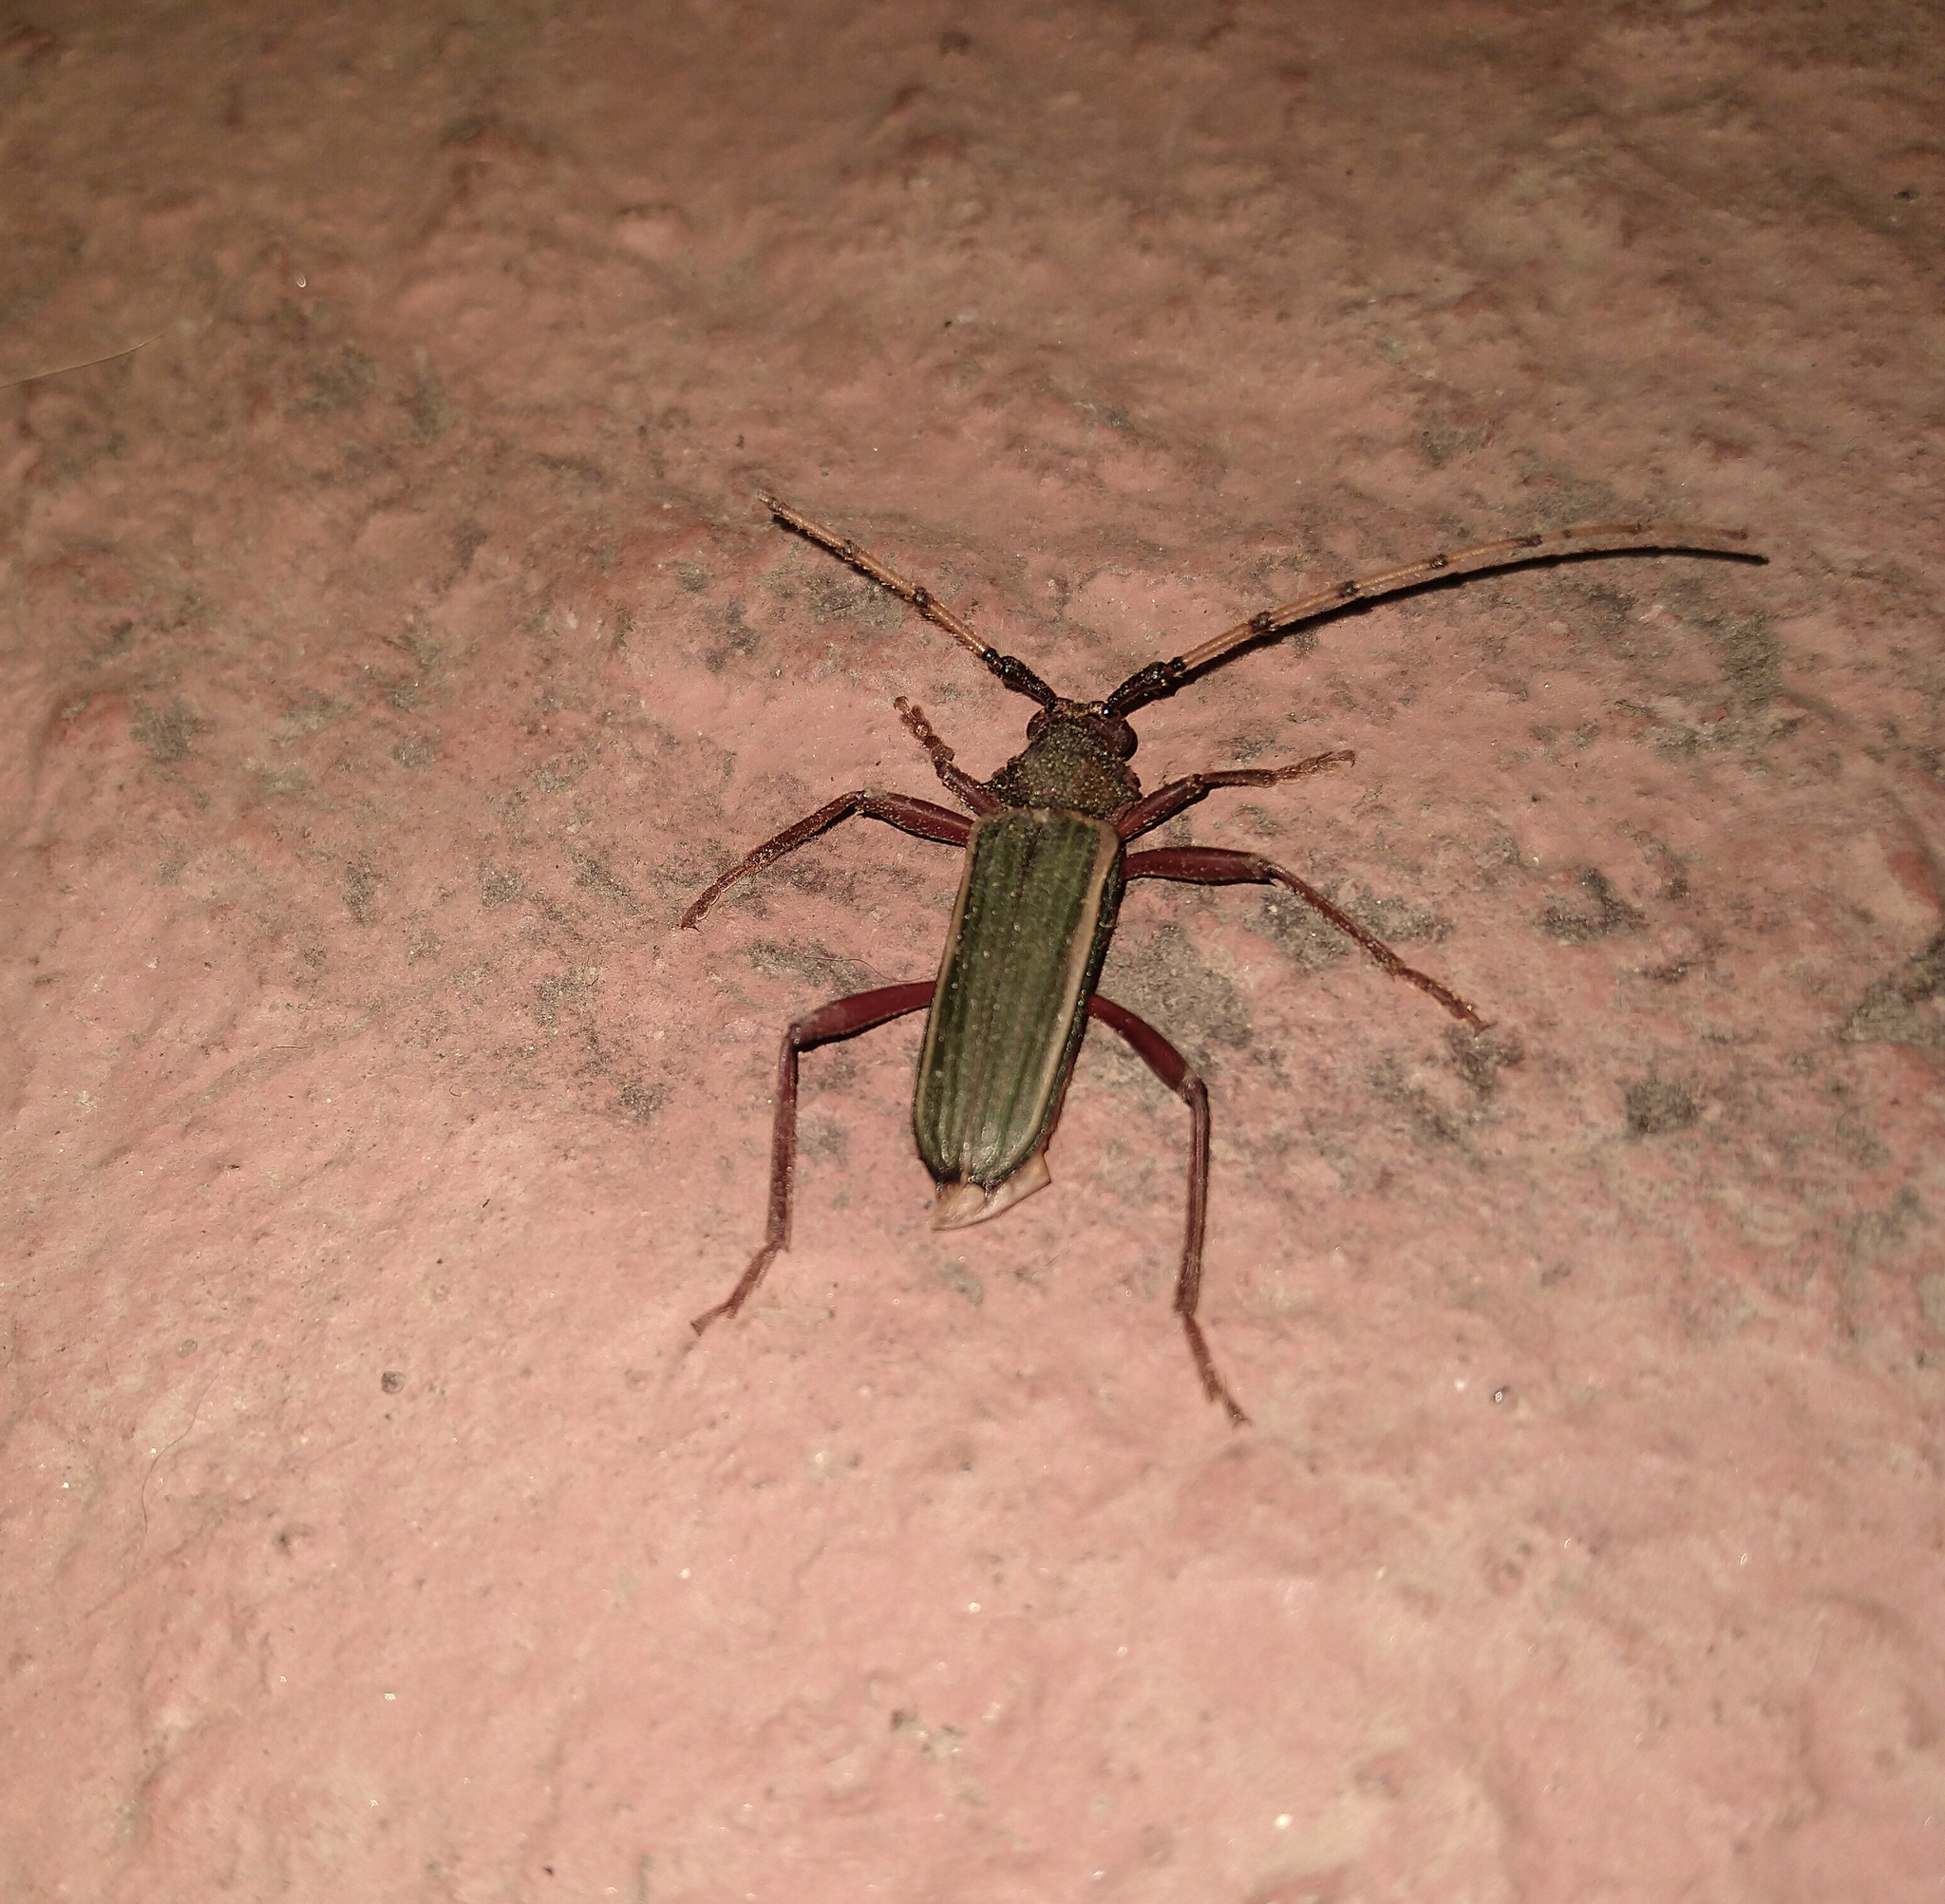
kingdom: Animalia
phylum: Arthropoda
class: Insecta
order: Coleoptera
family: Cerambycidae
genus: Chlorida
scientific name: Chlorida costata
